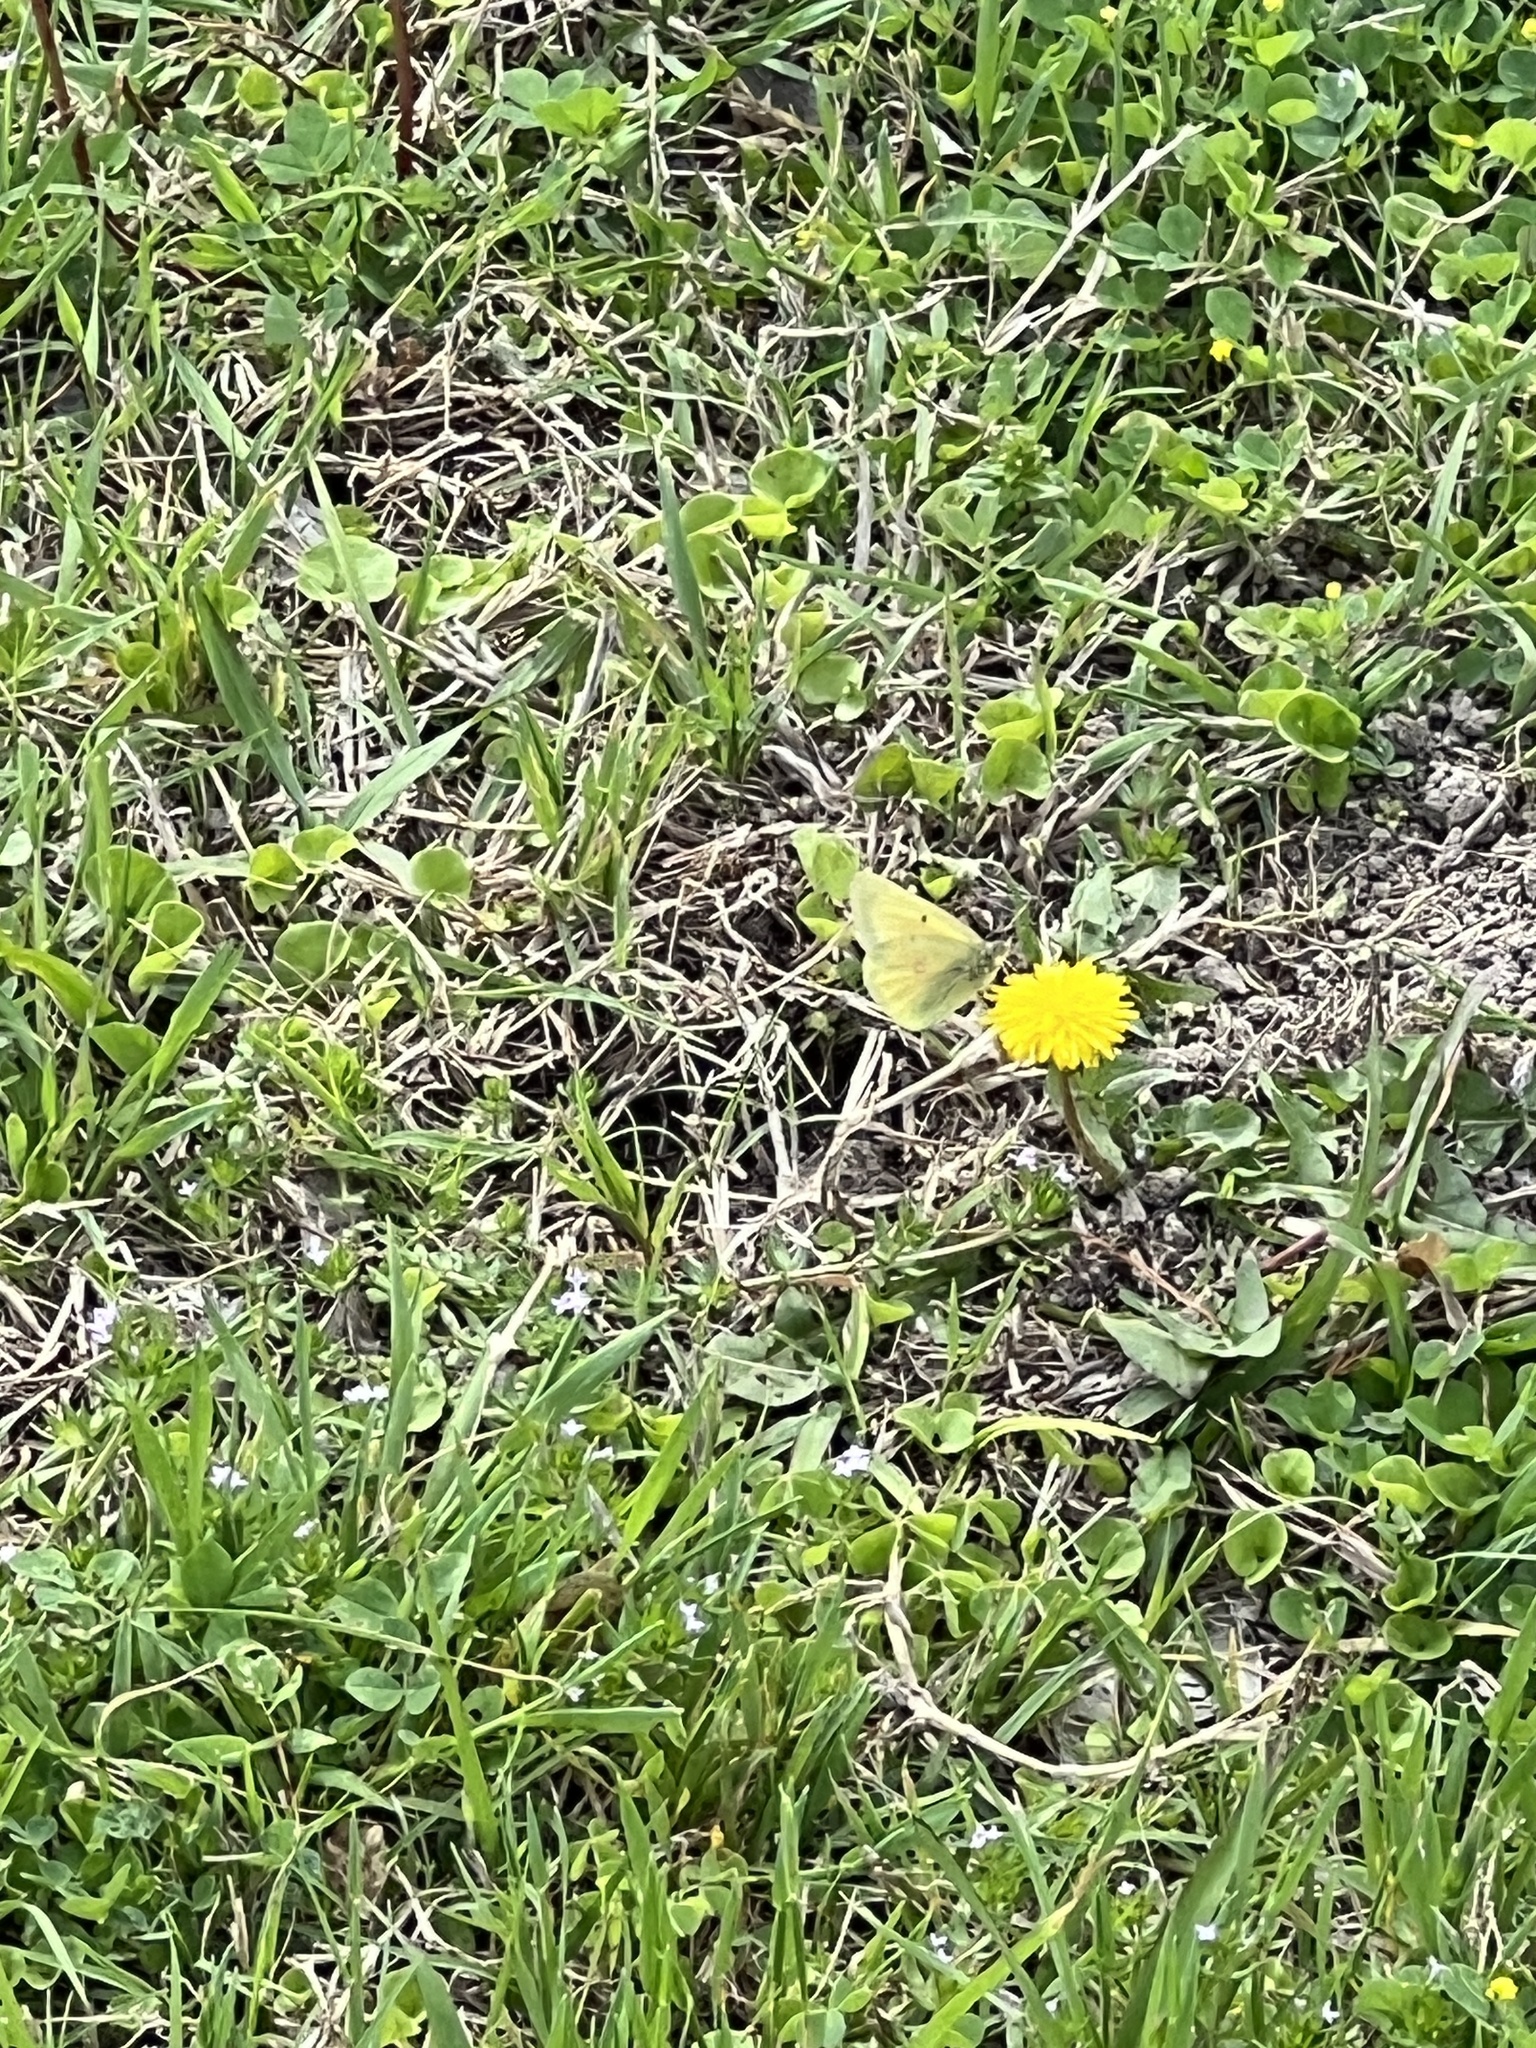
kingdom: Animalia
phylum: Arthropoda
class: Insecta
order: Lepidoptera
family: Pieridae
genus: Colias
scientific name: Colias eurytheme
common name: Alfalfa butterfly
